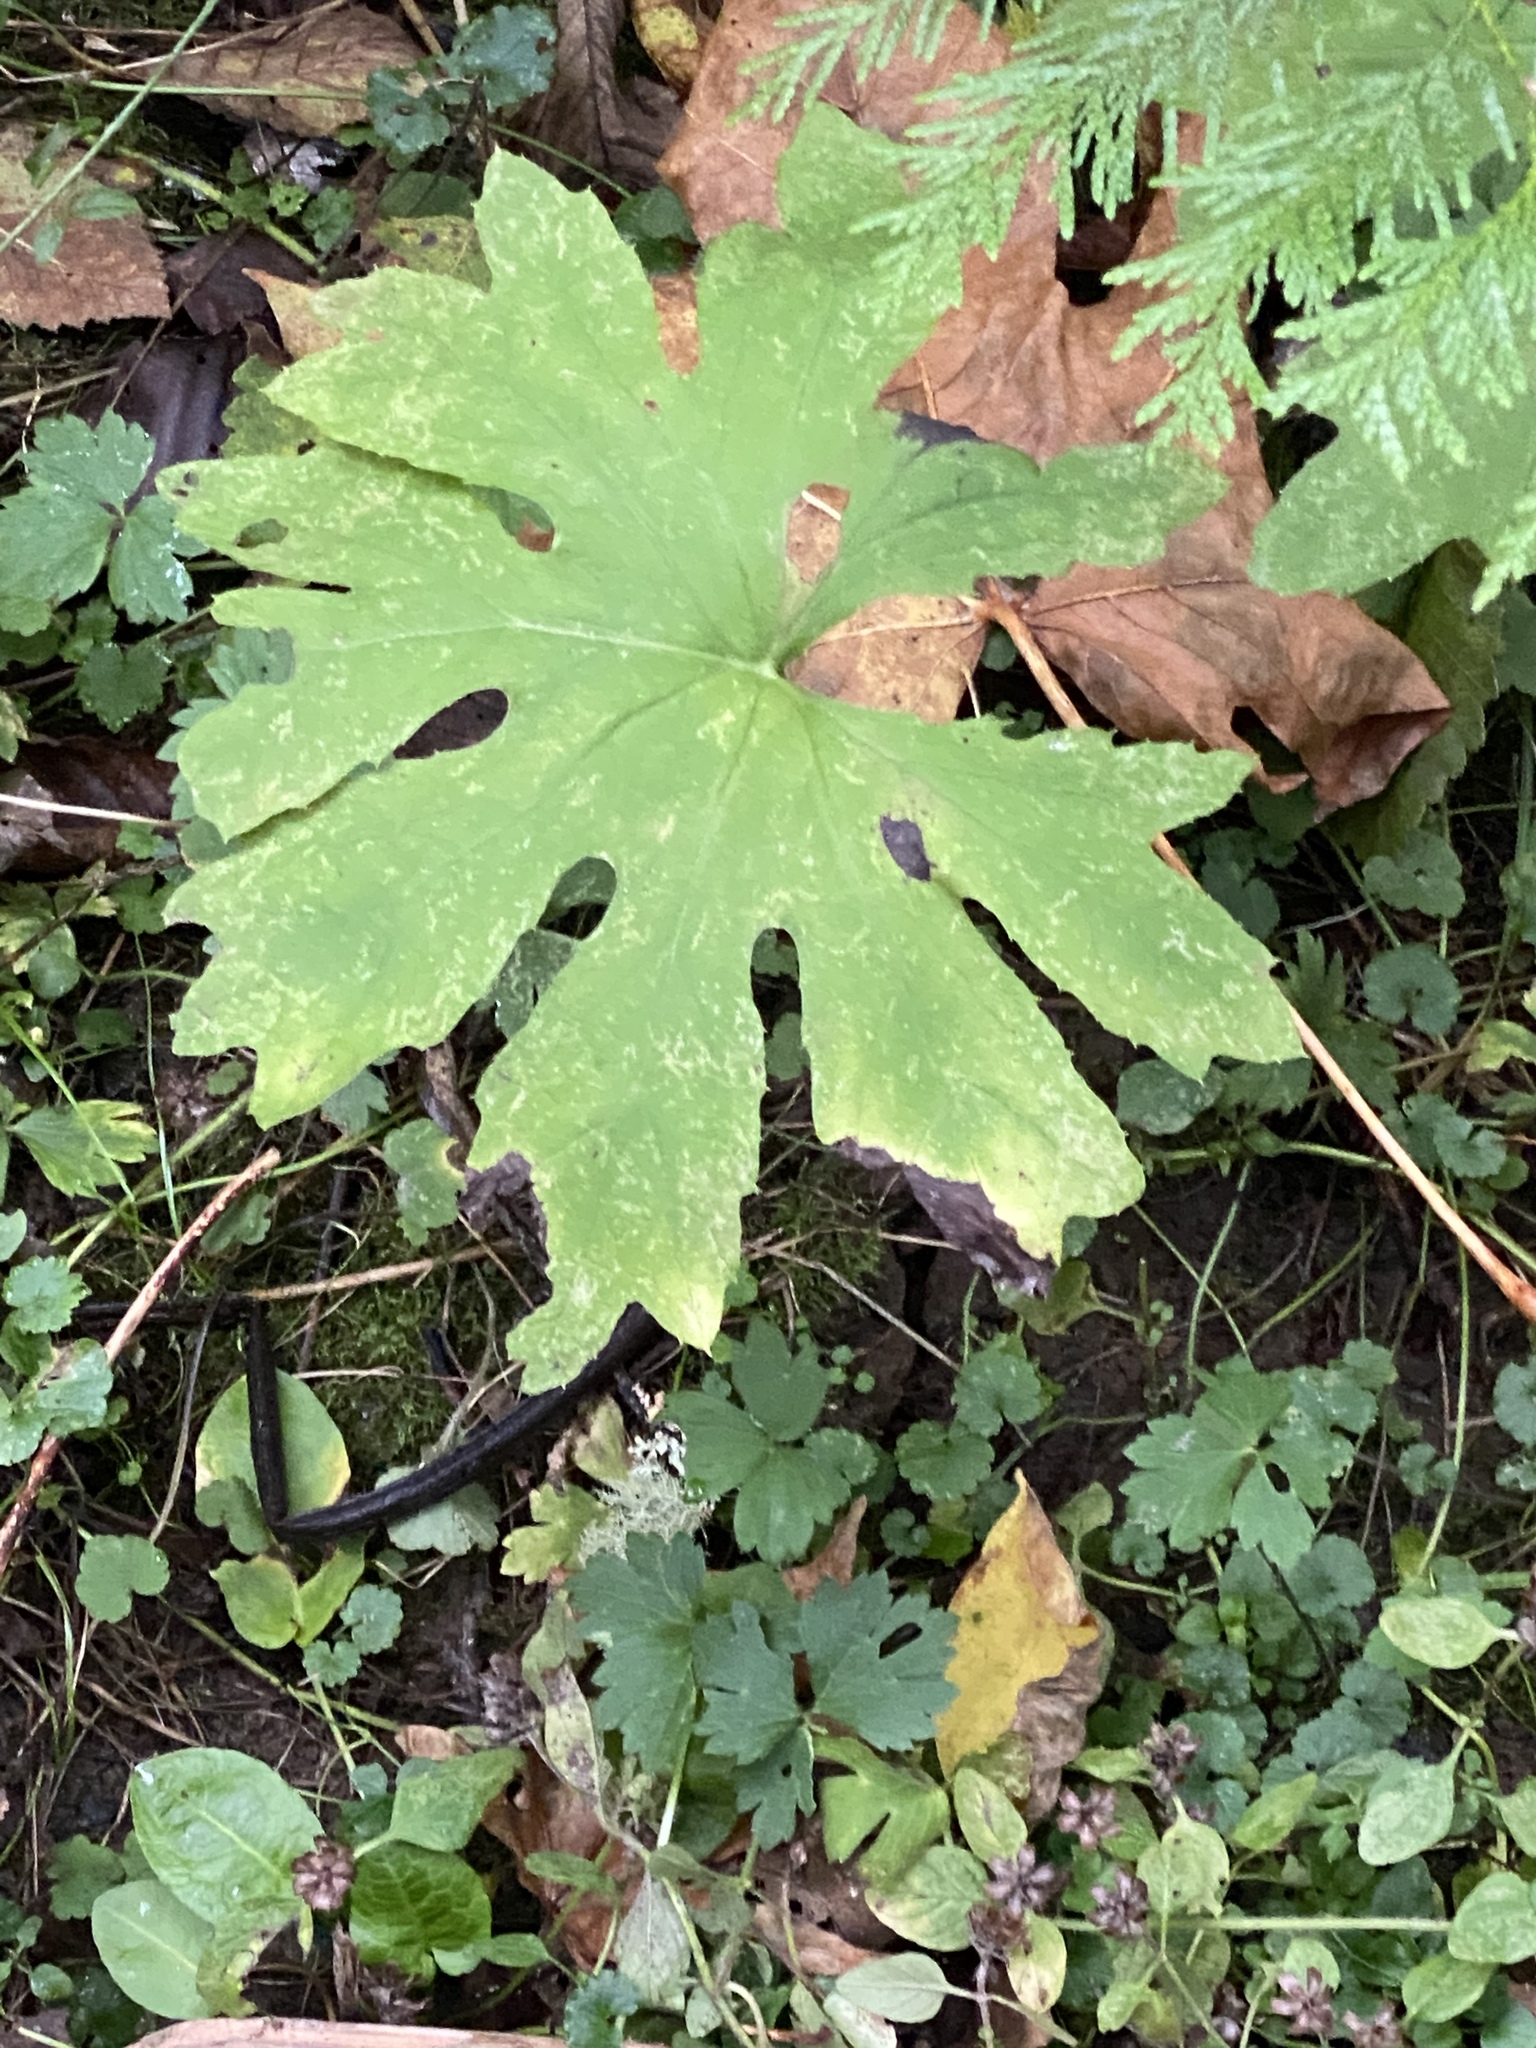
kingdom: Plantae
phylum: Tracheophyta
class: Magnoliopsida
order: Asterales
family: Asteraceae
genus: Petasites
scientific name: Petasites frigidus
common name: Arctic butterbur
